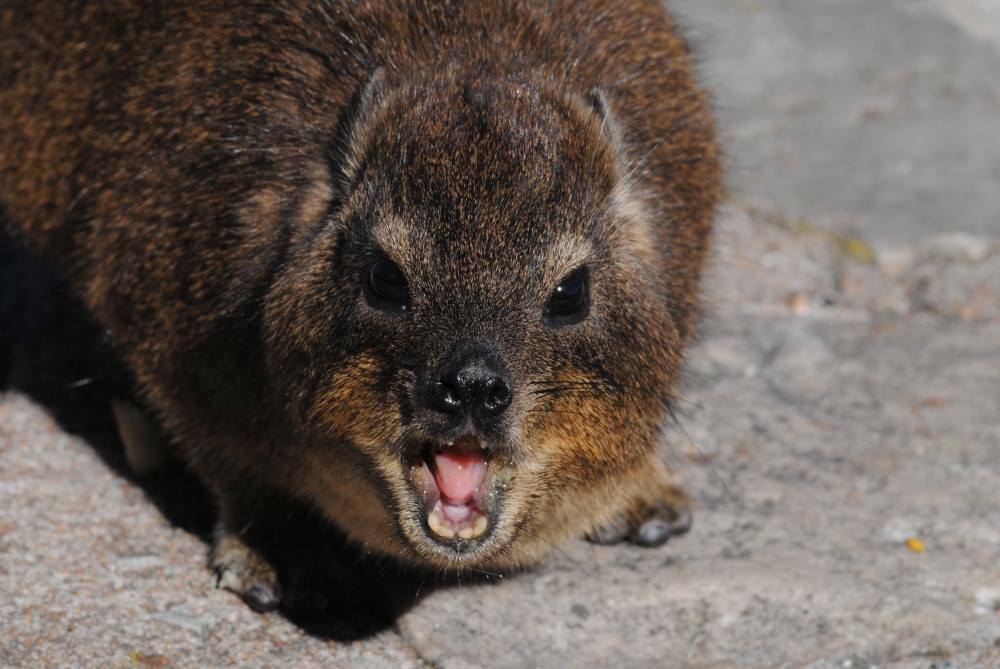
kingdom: Animalia
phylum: Chordata
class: Mammalia
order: Hyracoidea
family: Procaviidae
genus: Procavia
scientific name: Procavia capensis
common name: Rock hyrax
